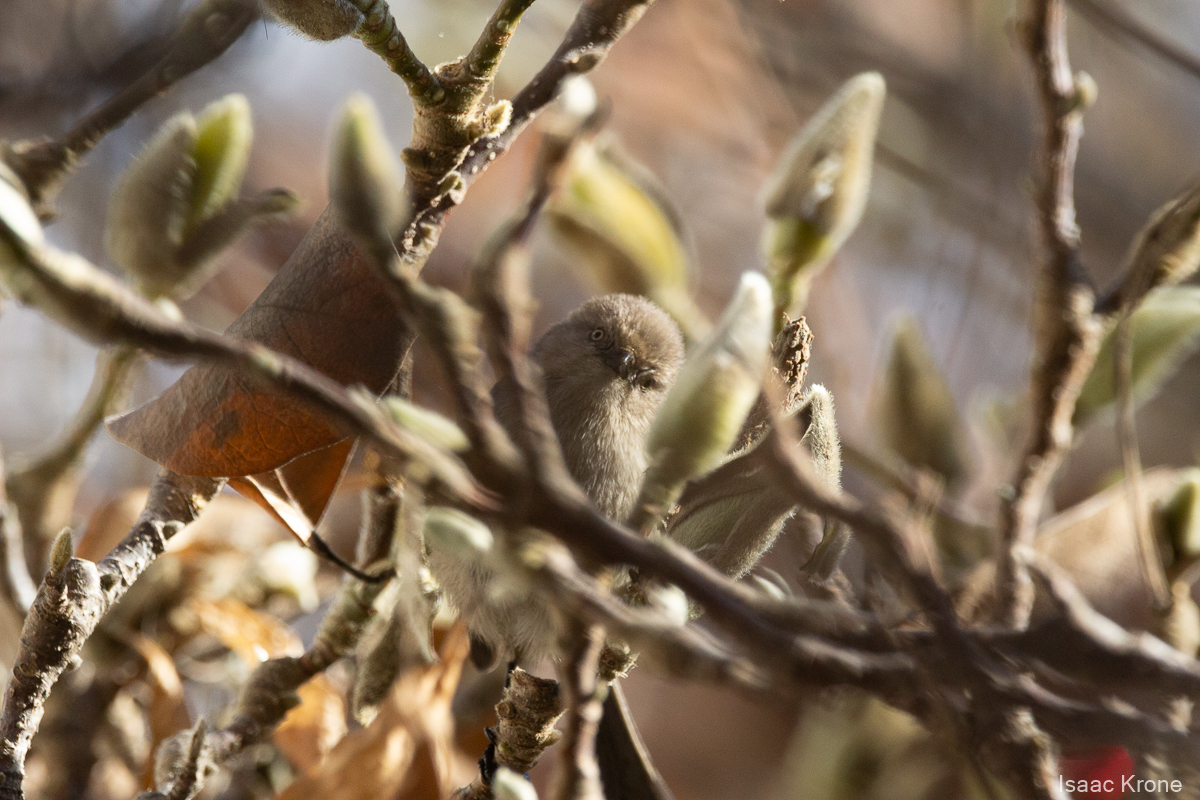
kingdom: Animalia
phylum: Chordata
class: Aves
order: Passeriformes
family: Aegithalidae
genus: Psaltriparus
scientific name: Psaltriparus minimus
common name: American bushtit
